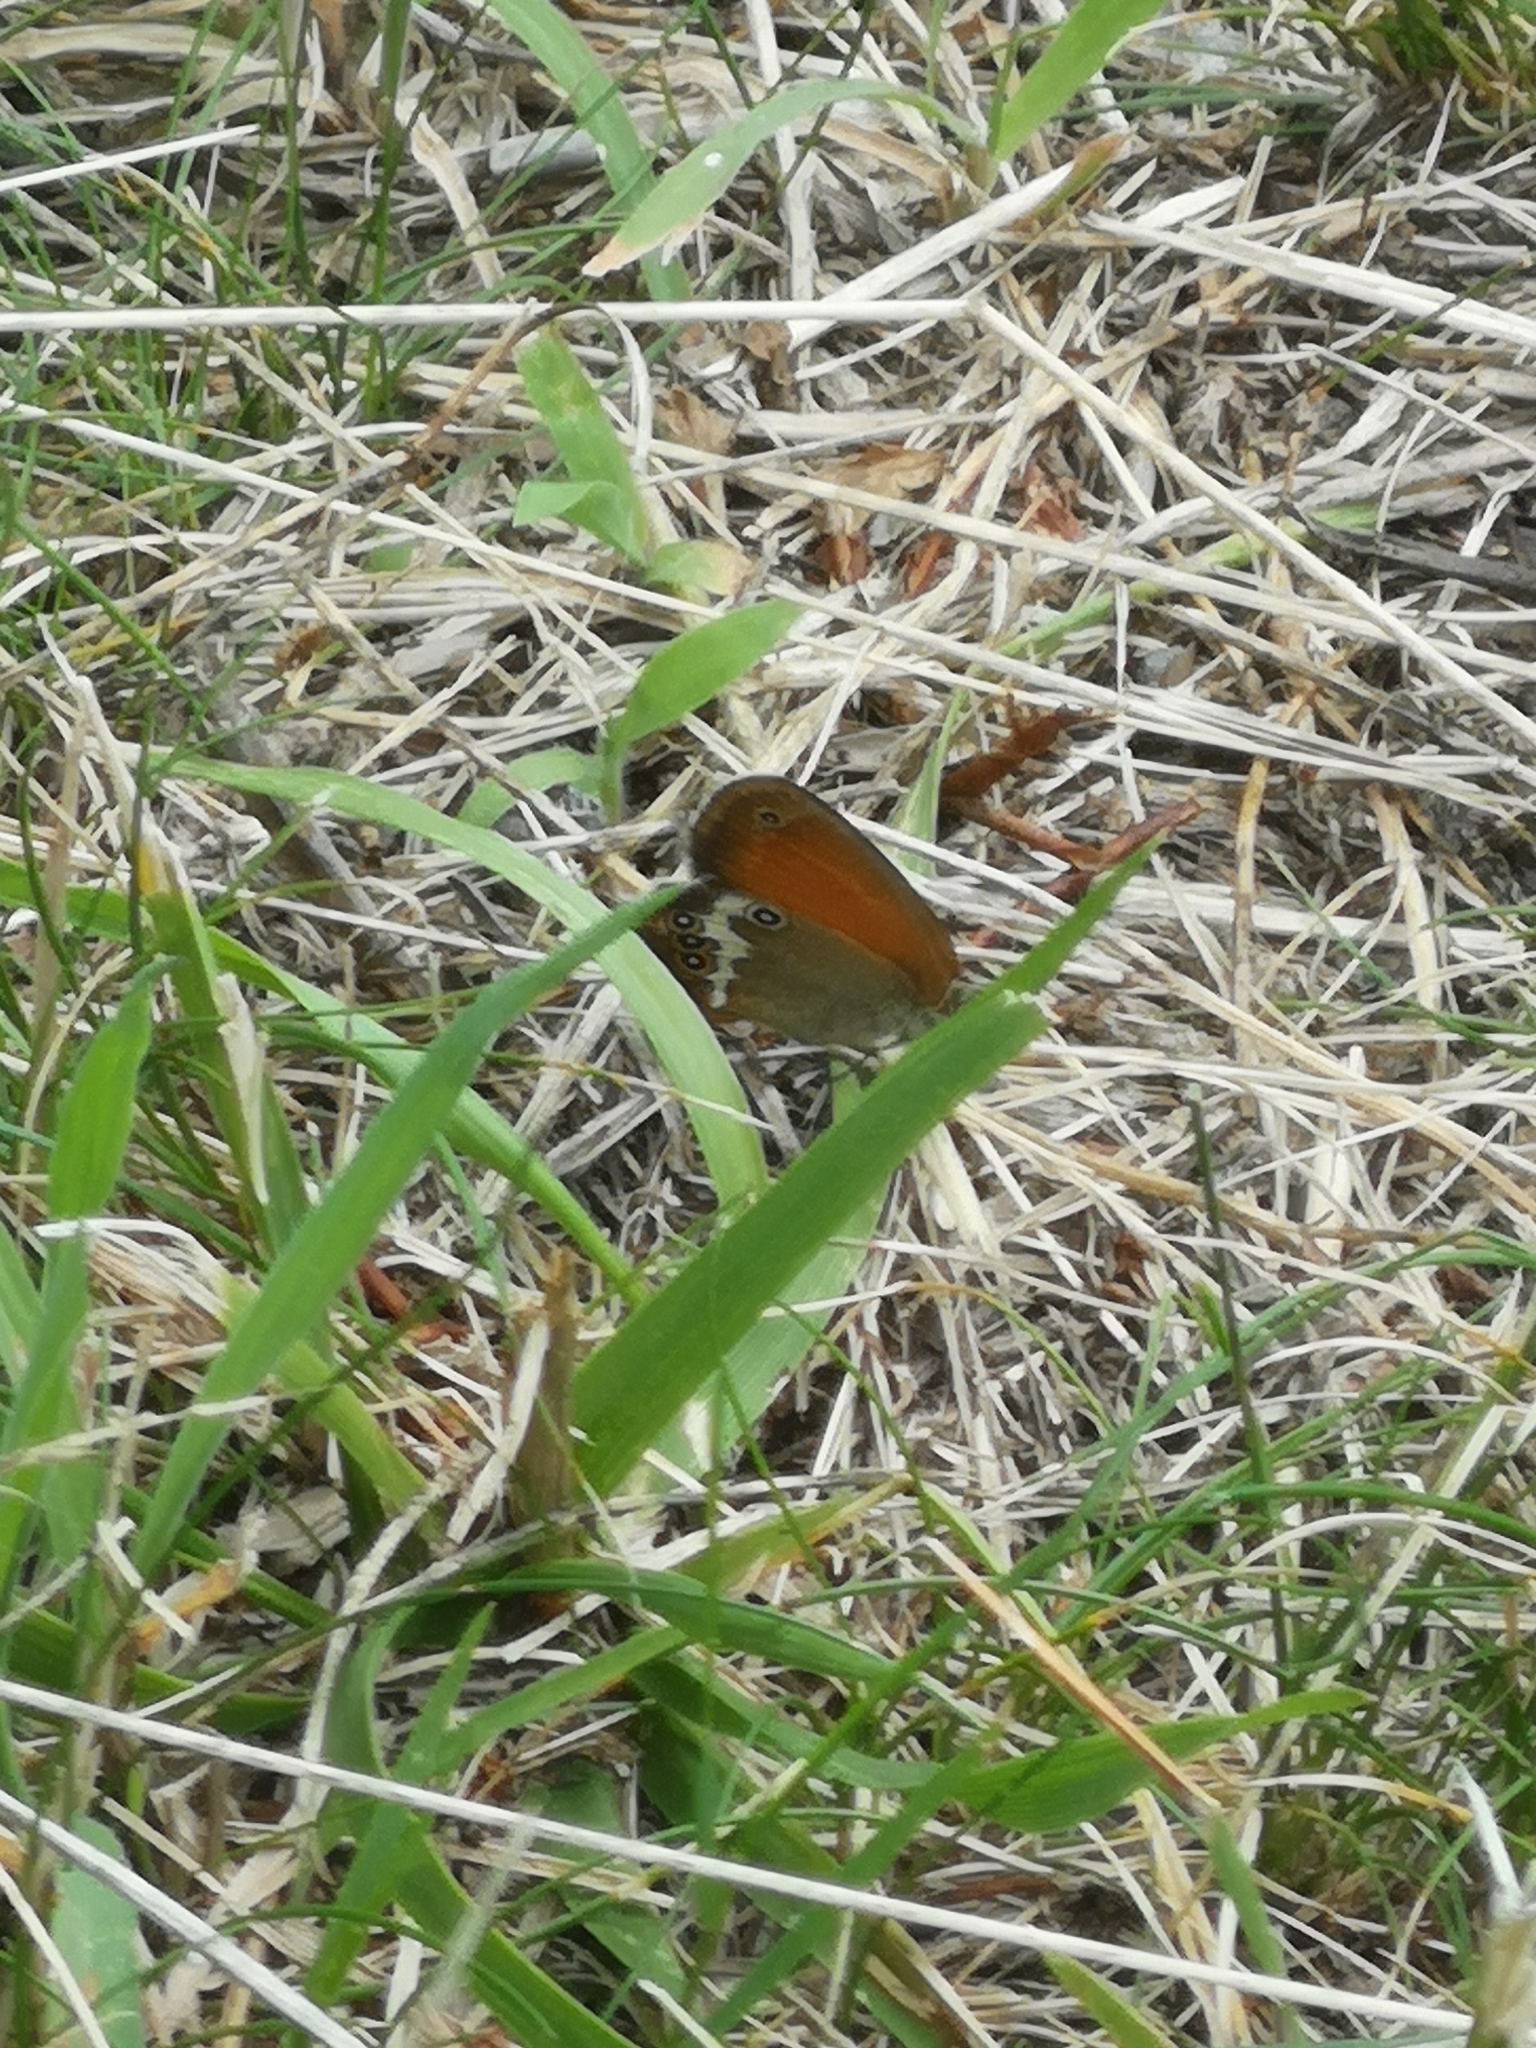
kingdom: Animalia
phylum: Arthropoda
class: Insecta
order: Lepidoptera
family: Nymphalidae
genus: Coenonympha
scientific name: Coenonympha arcania
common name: Pearly heath
